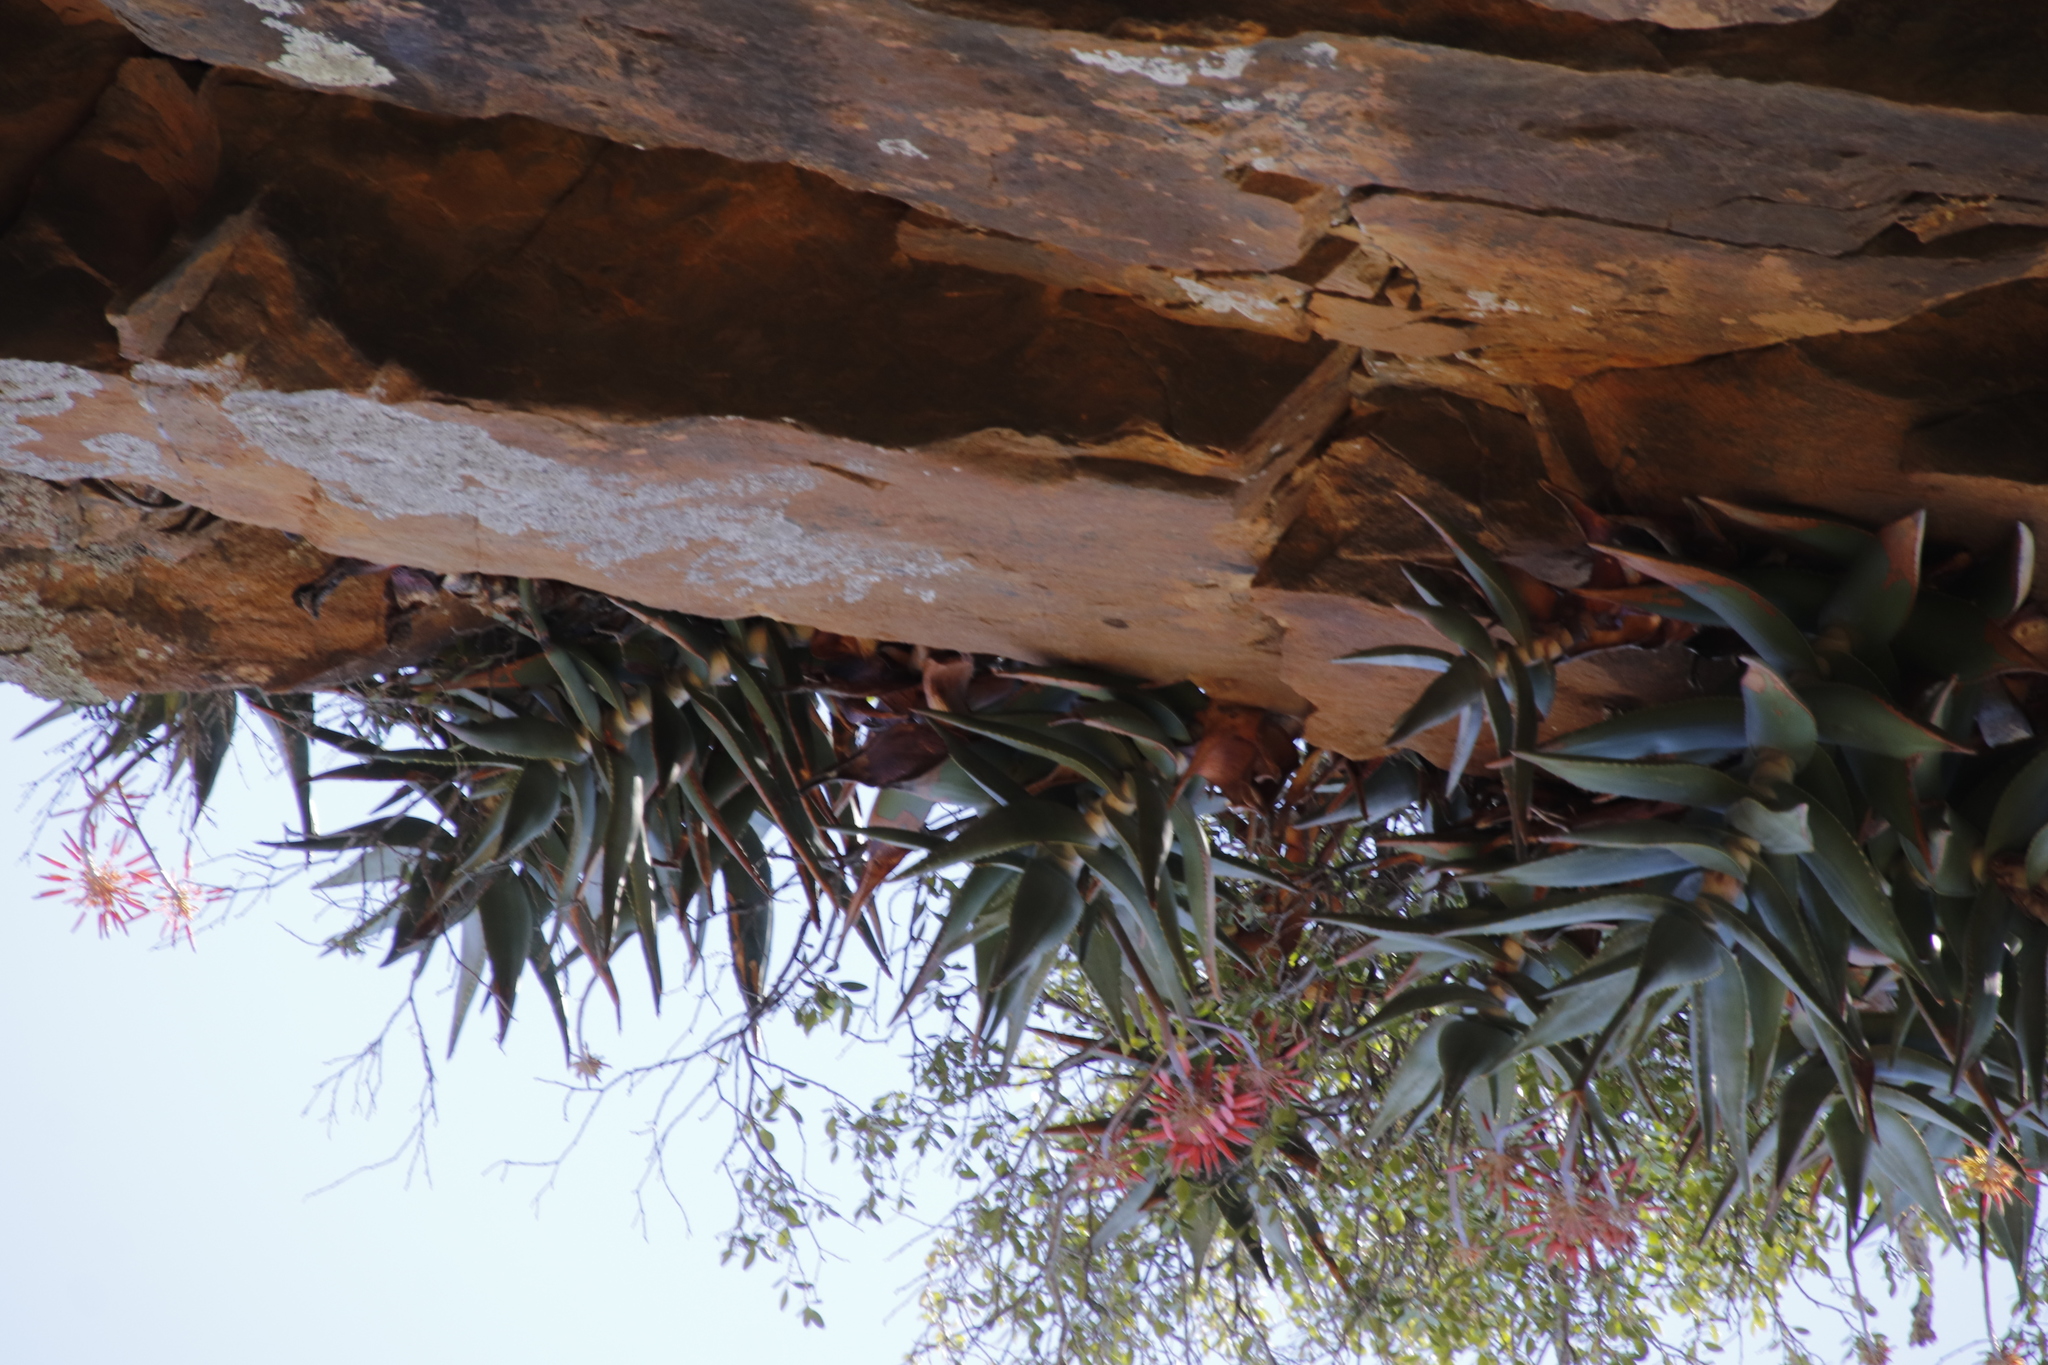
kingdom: Plantae
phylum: Tracheophyta
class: Liliopsida
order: Asparagales
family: Asphodelaceae
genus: Aloe
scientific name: Aloe perfoliata
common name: Mitra aloe
